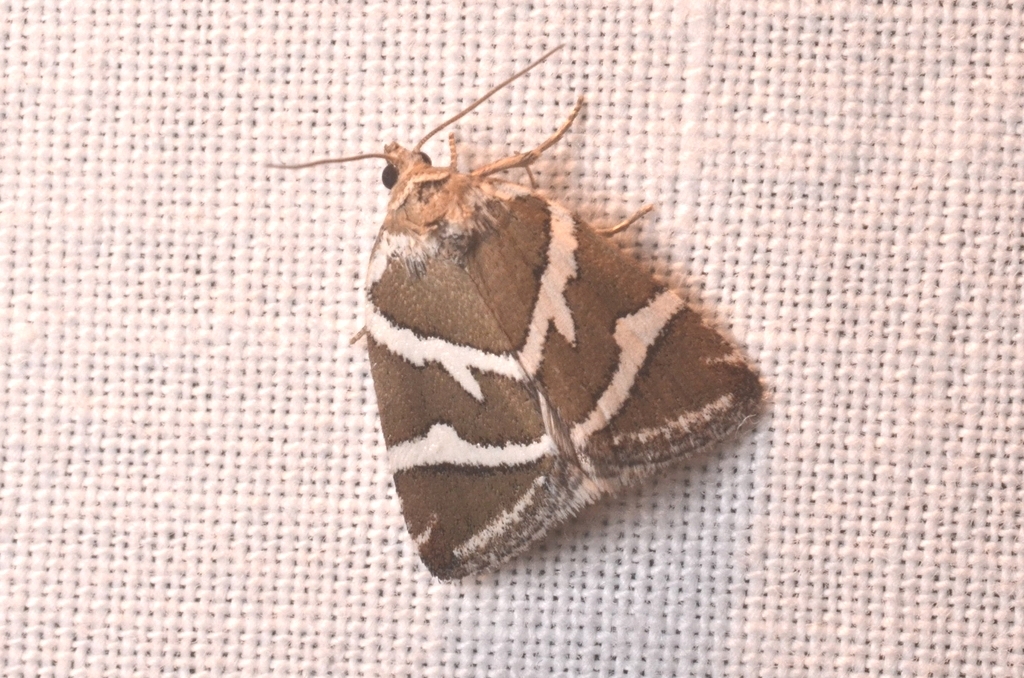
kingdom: Animalia
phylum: Arthropoda
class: Insecta
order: Lepidoptera
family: Noctuidae
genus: Deltote
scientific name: Deltote bankiana
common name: Silver barred
